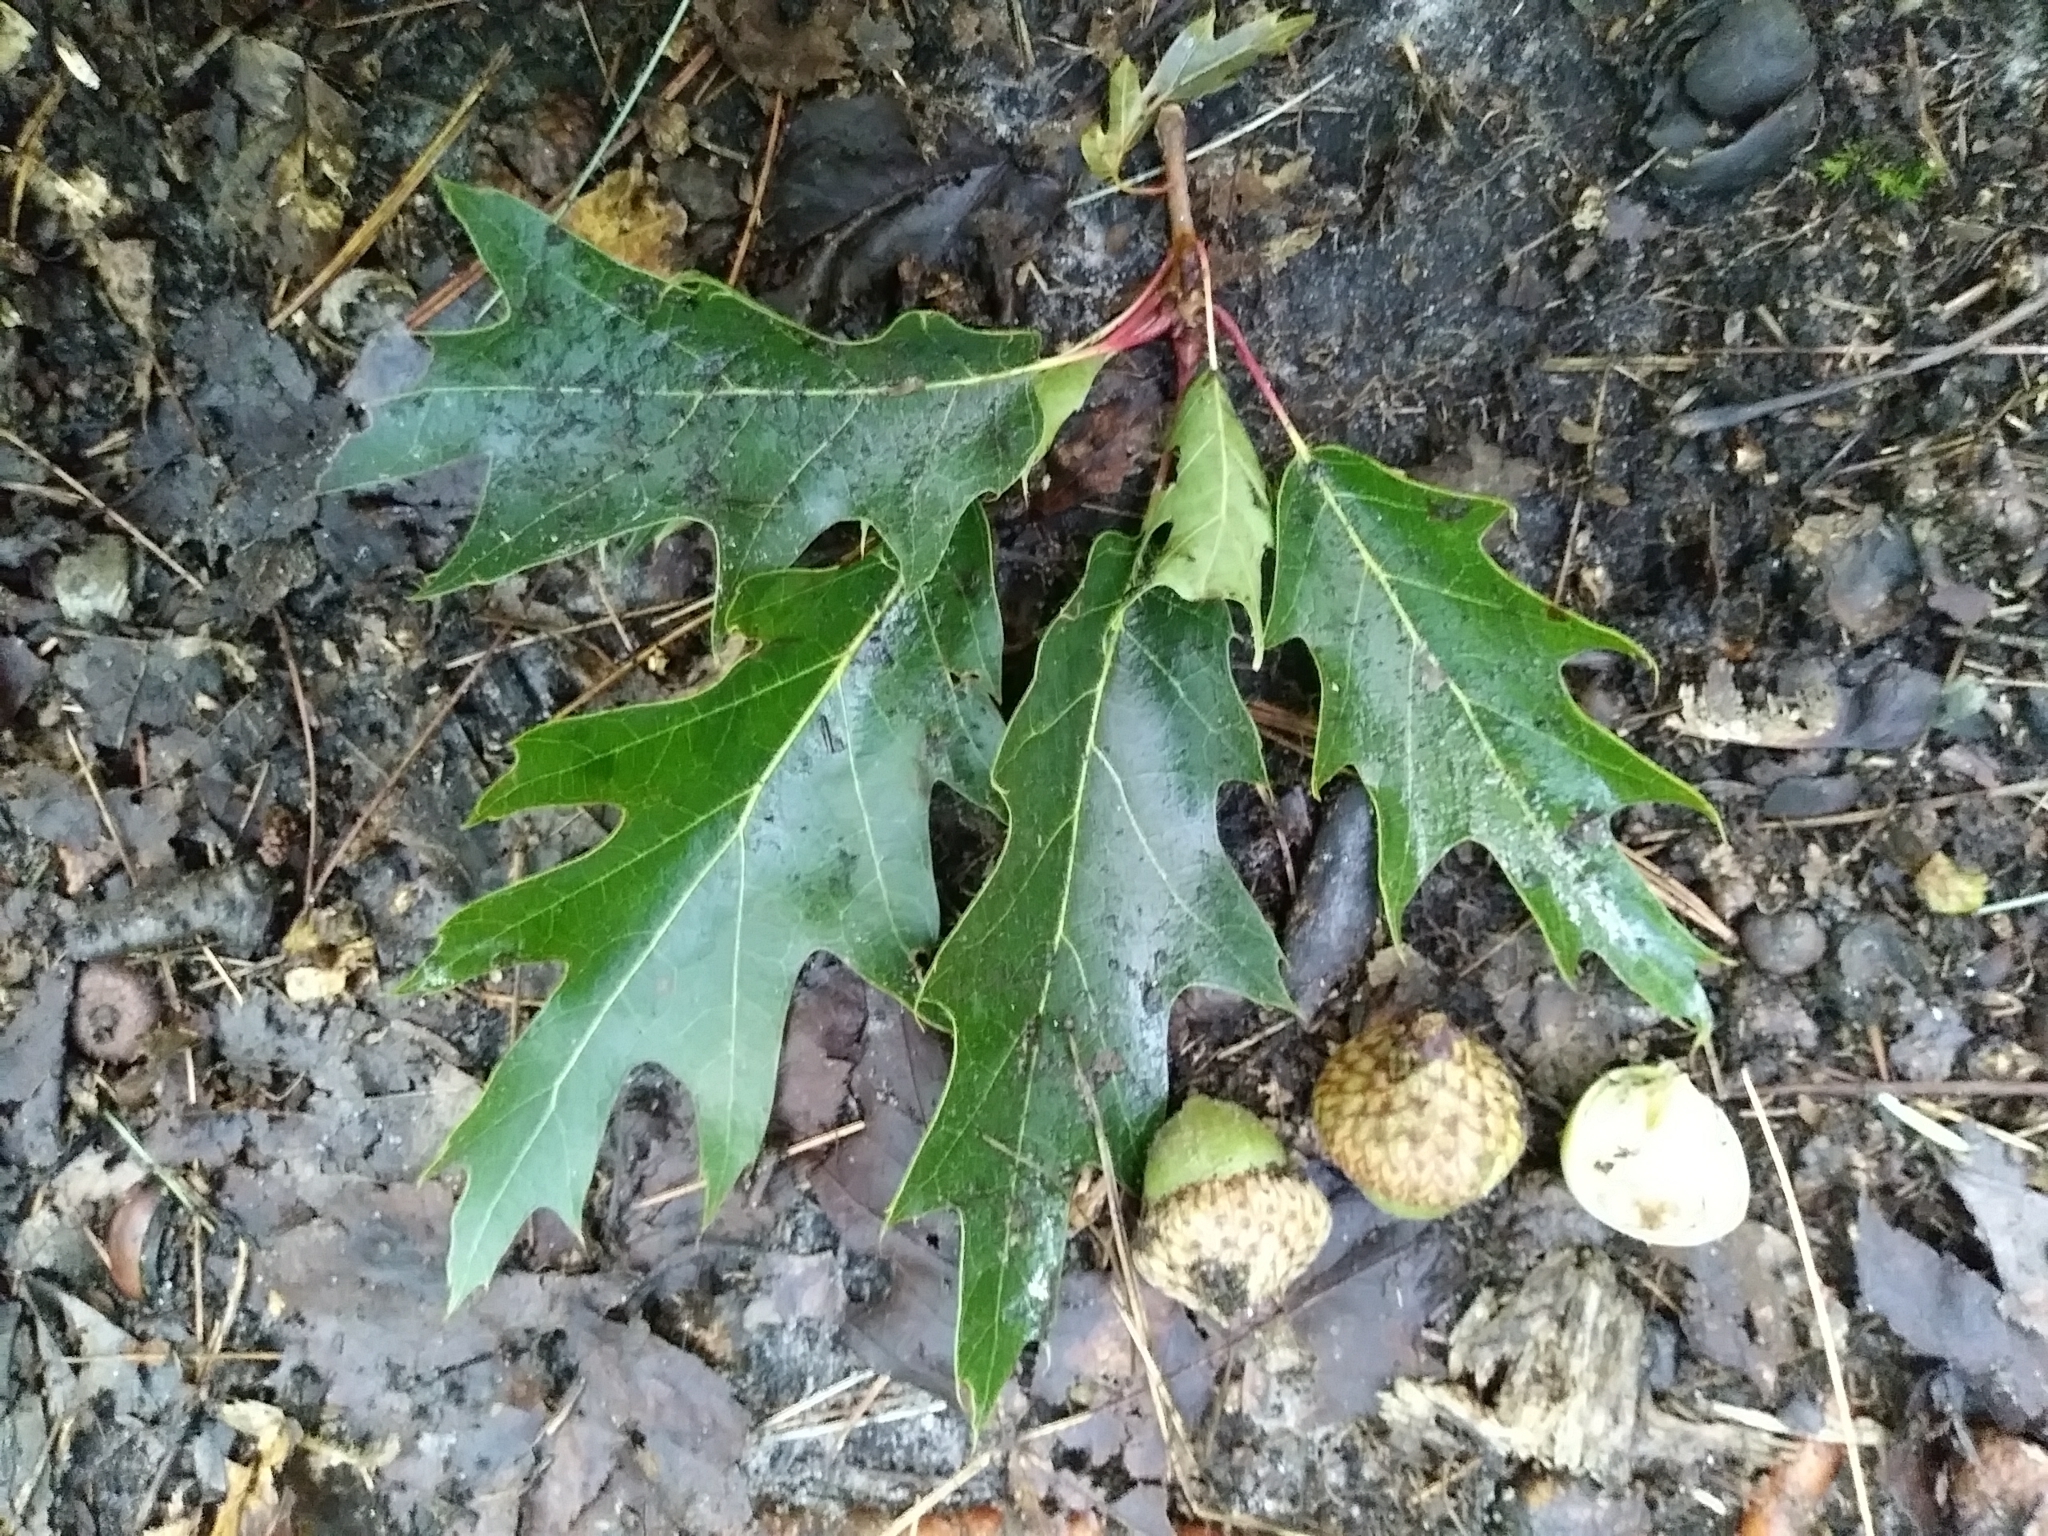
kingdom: Plantae
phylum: Tracheophyta
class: Magnoliopsida
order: Fagales
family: Fagaceae
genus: Quercus
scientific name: Quercus rubra
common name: Red oak
